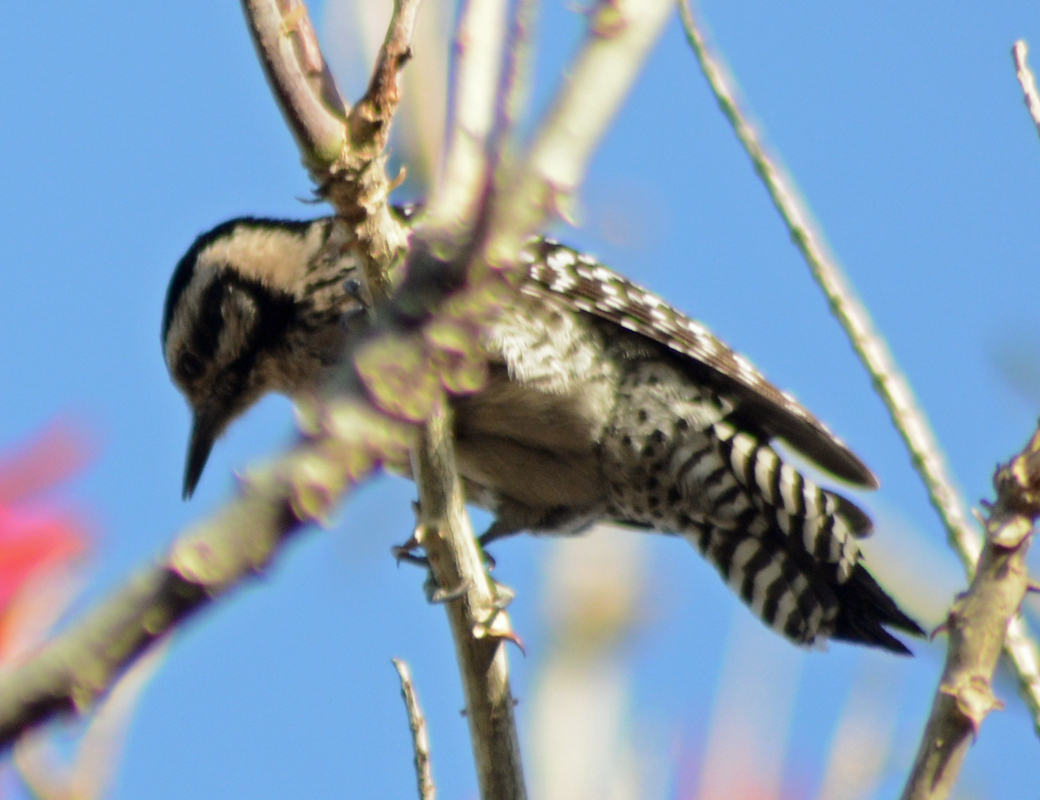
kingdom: Animalia
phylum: Chordata
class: Aves
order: Piciformes
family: Picidae
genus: Dryobates
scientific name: Dryobates scalaris
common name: Ladder-backed woodpecker
